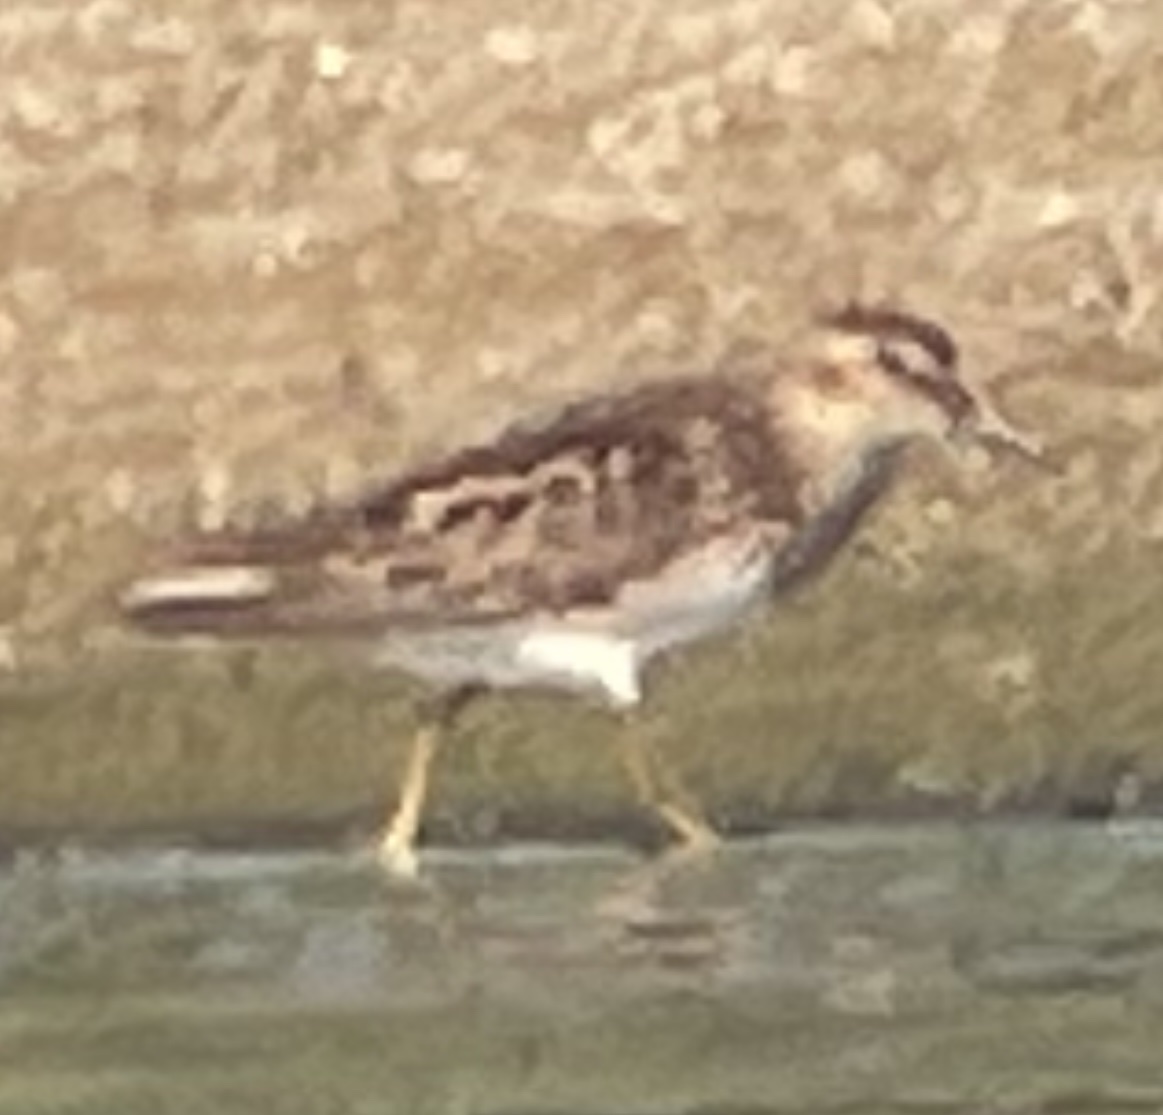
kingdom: Animalia
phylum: Chordata
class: Aves
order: Charadriiformes
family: Scolopacidae
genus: Calidris
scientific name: Calidris minutilla
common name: Least sandpiper
